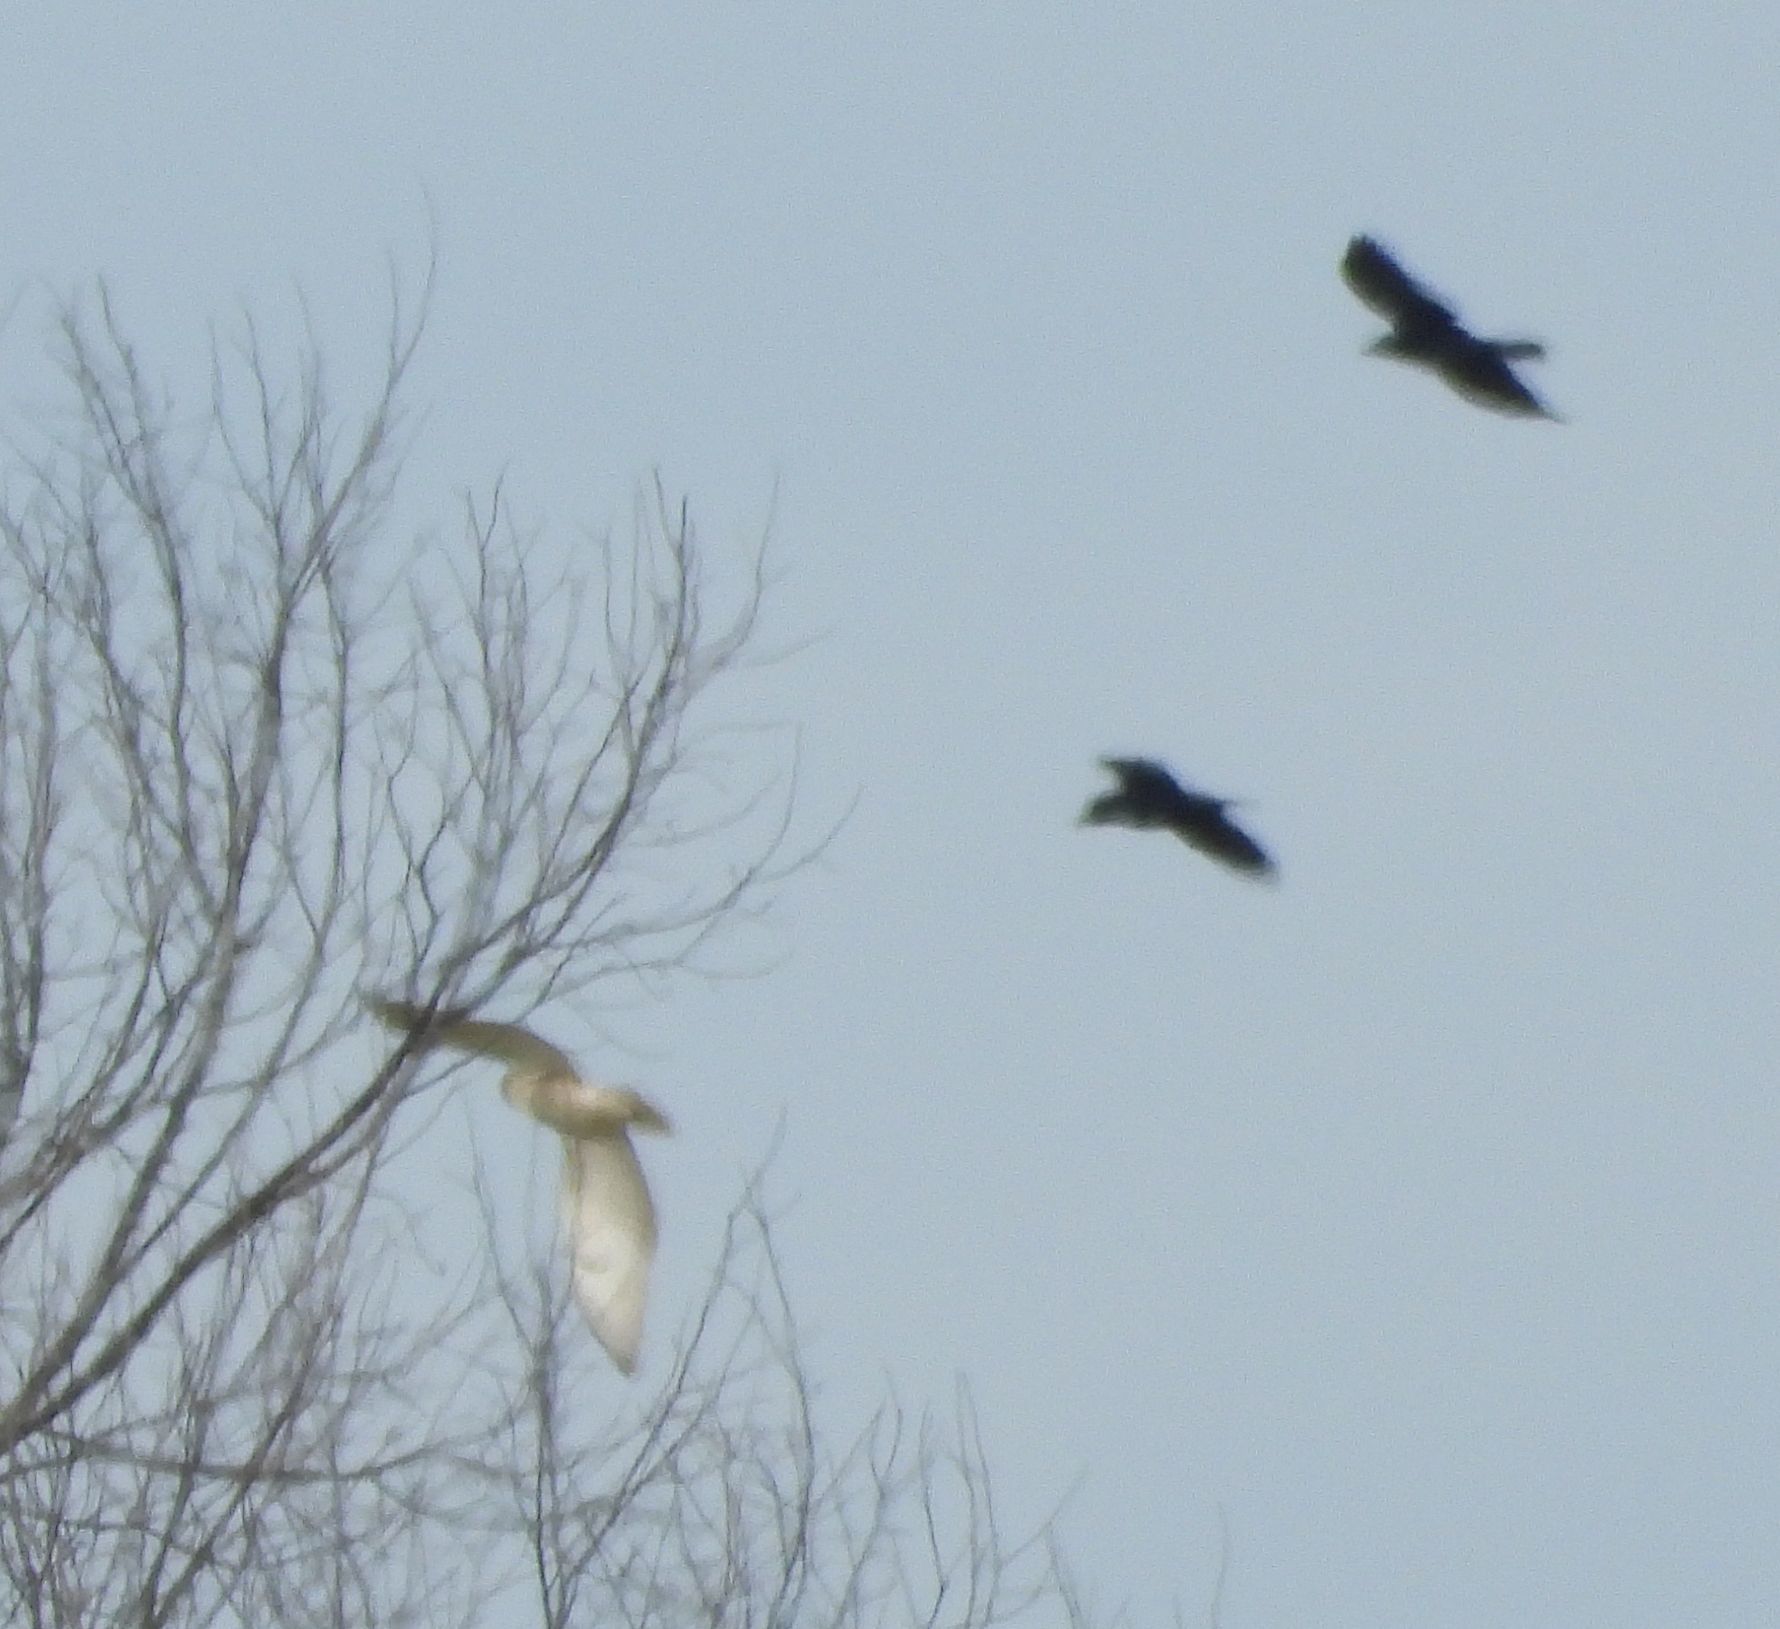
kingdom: Animalia
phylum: Chordata
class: Aves
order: Strigiformes
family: Strigidae
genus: Bubo
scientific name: Bubo scandiacus
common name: Snowy owl
